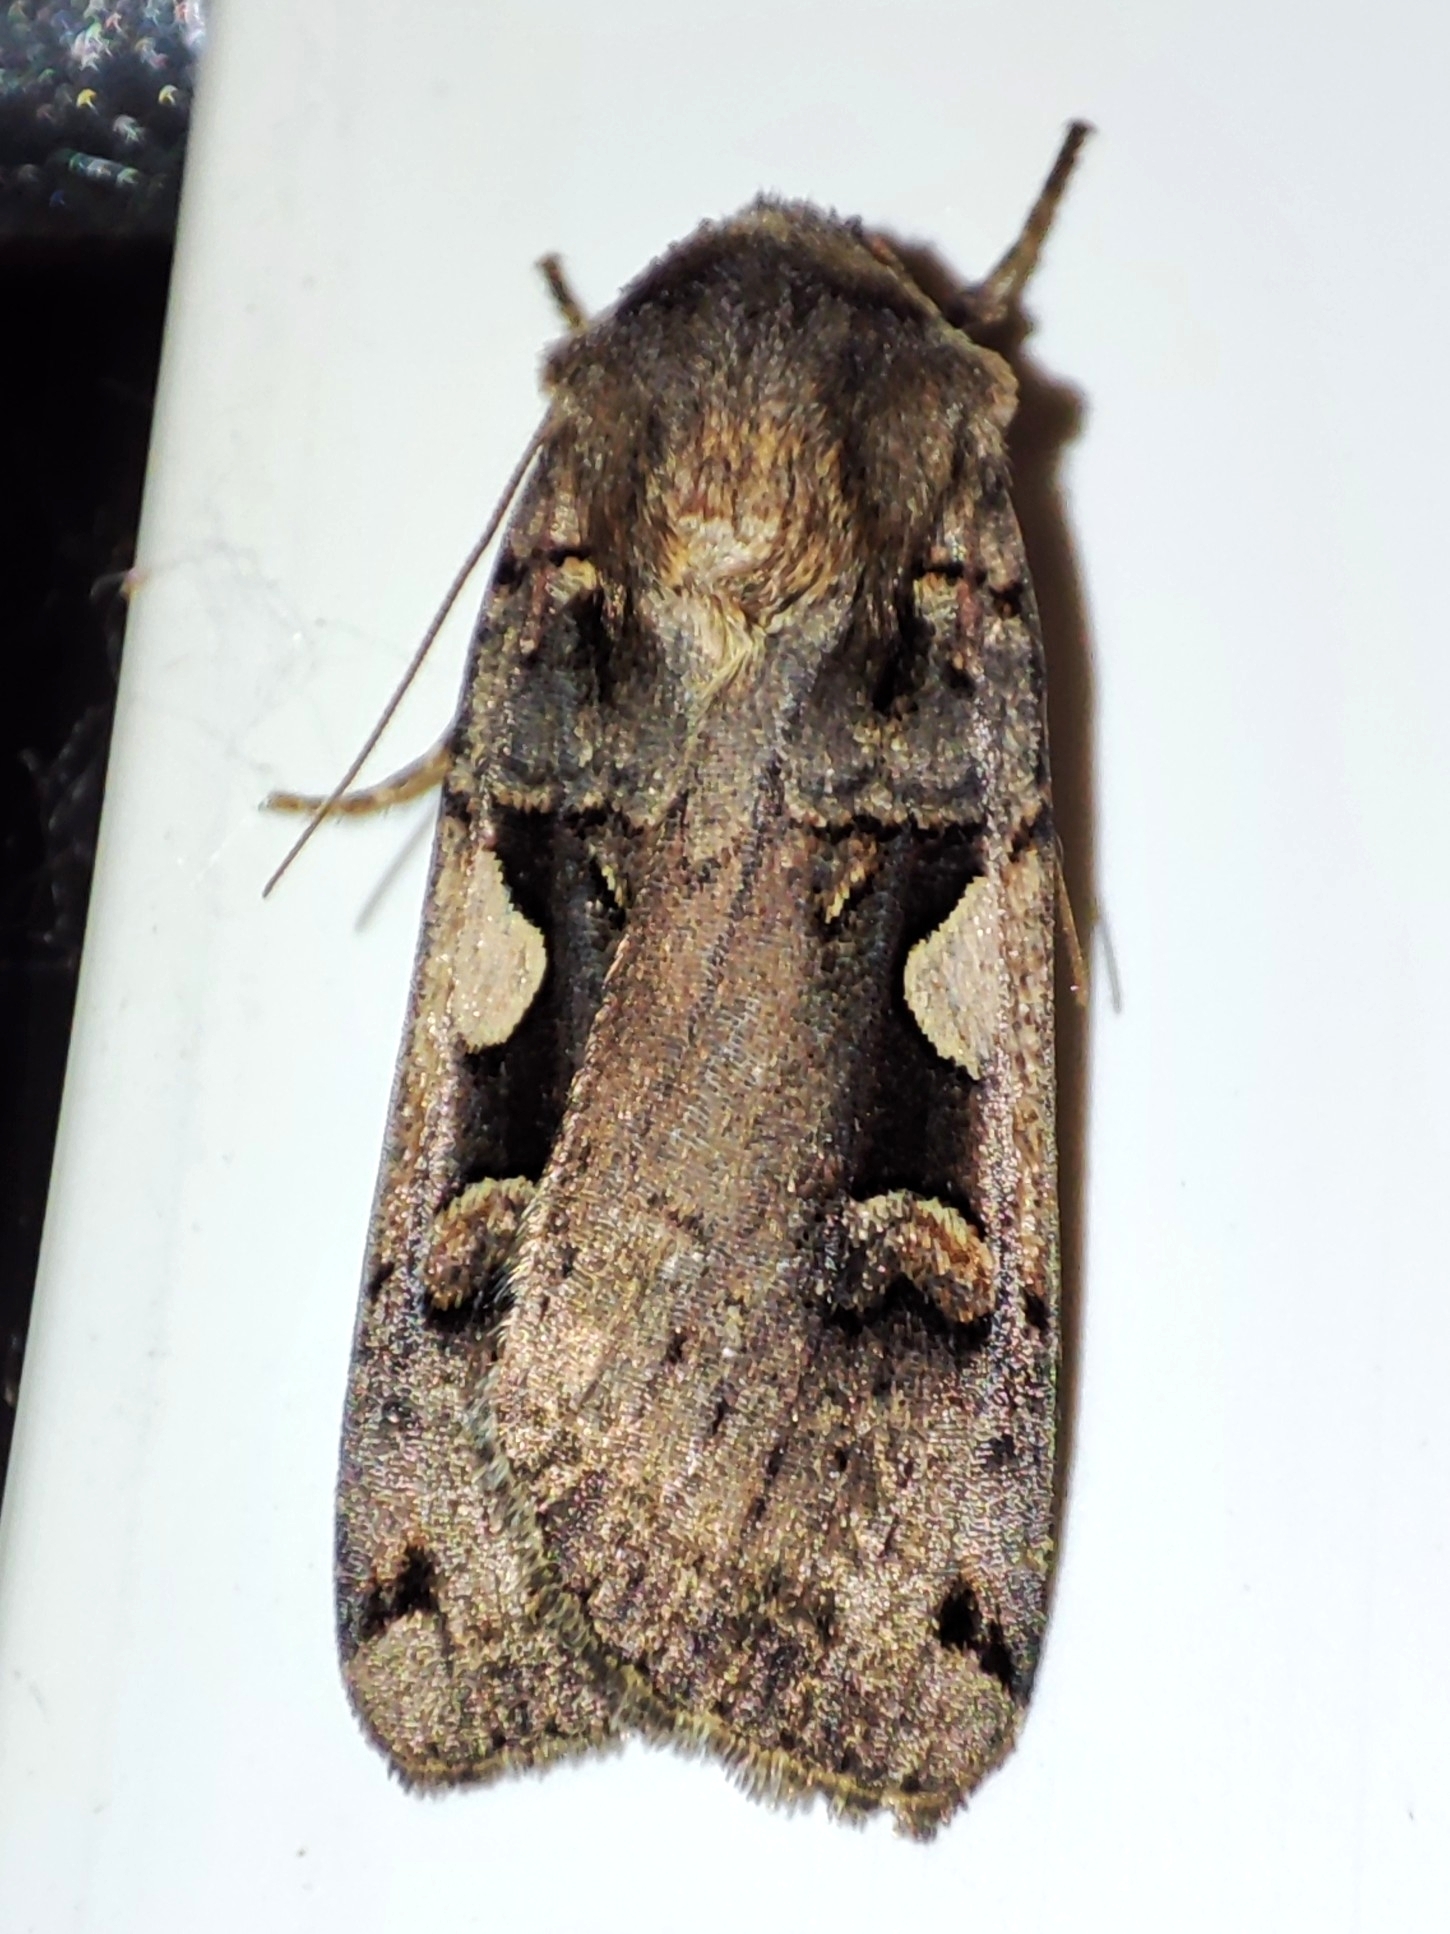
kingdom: Animalia
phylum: Arthropoda
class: Insecta
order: Lepidoptera
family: Noctuidae
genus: Xestia
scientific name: Xestia c-nigrum
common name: Setaceous hebrew character
